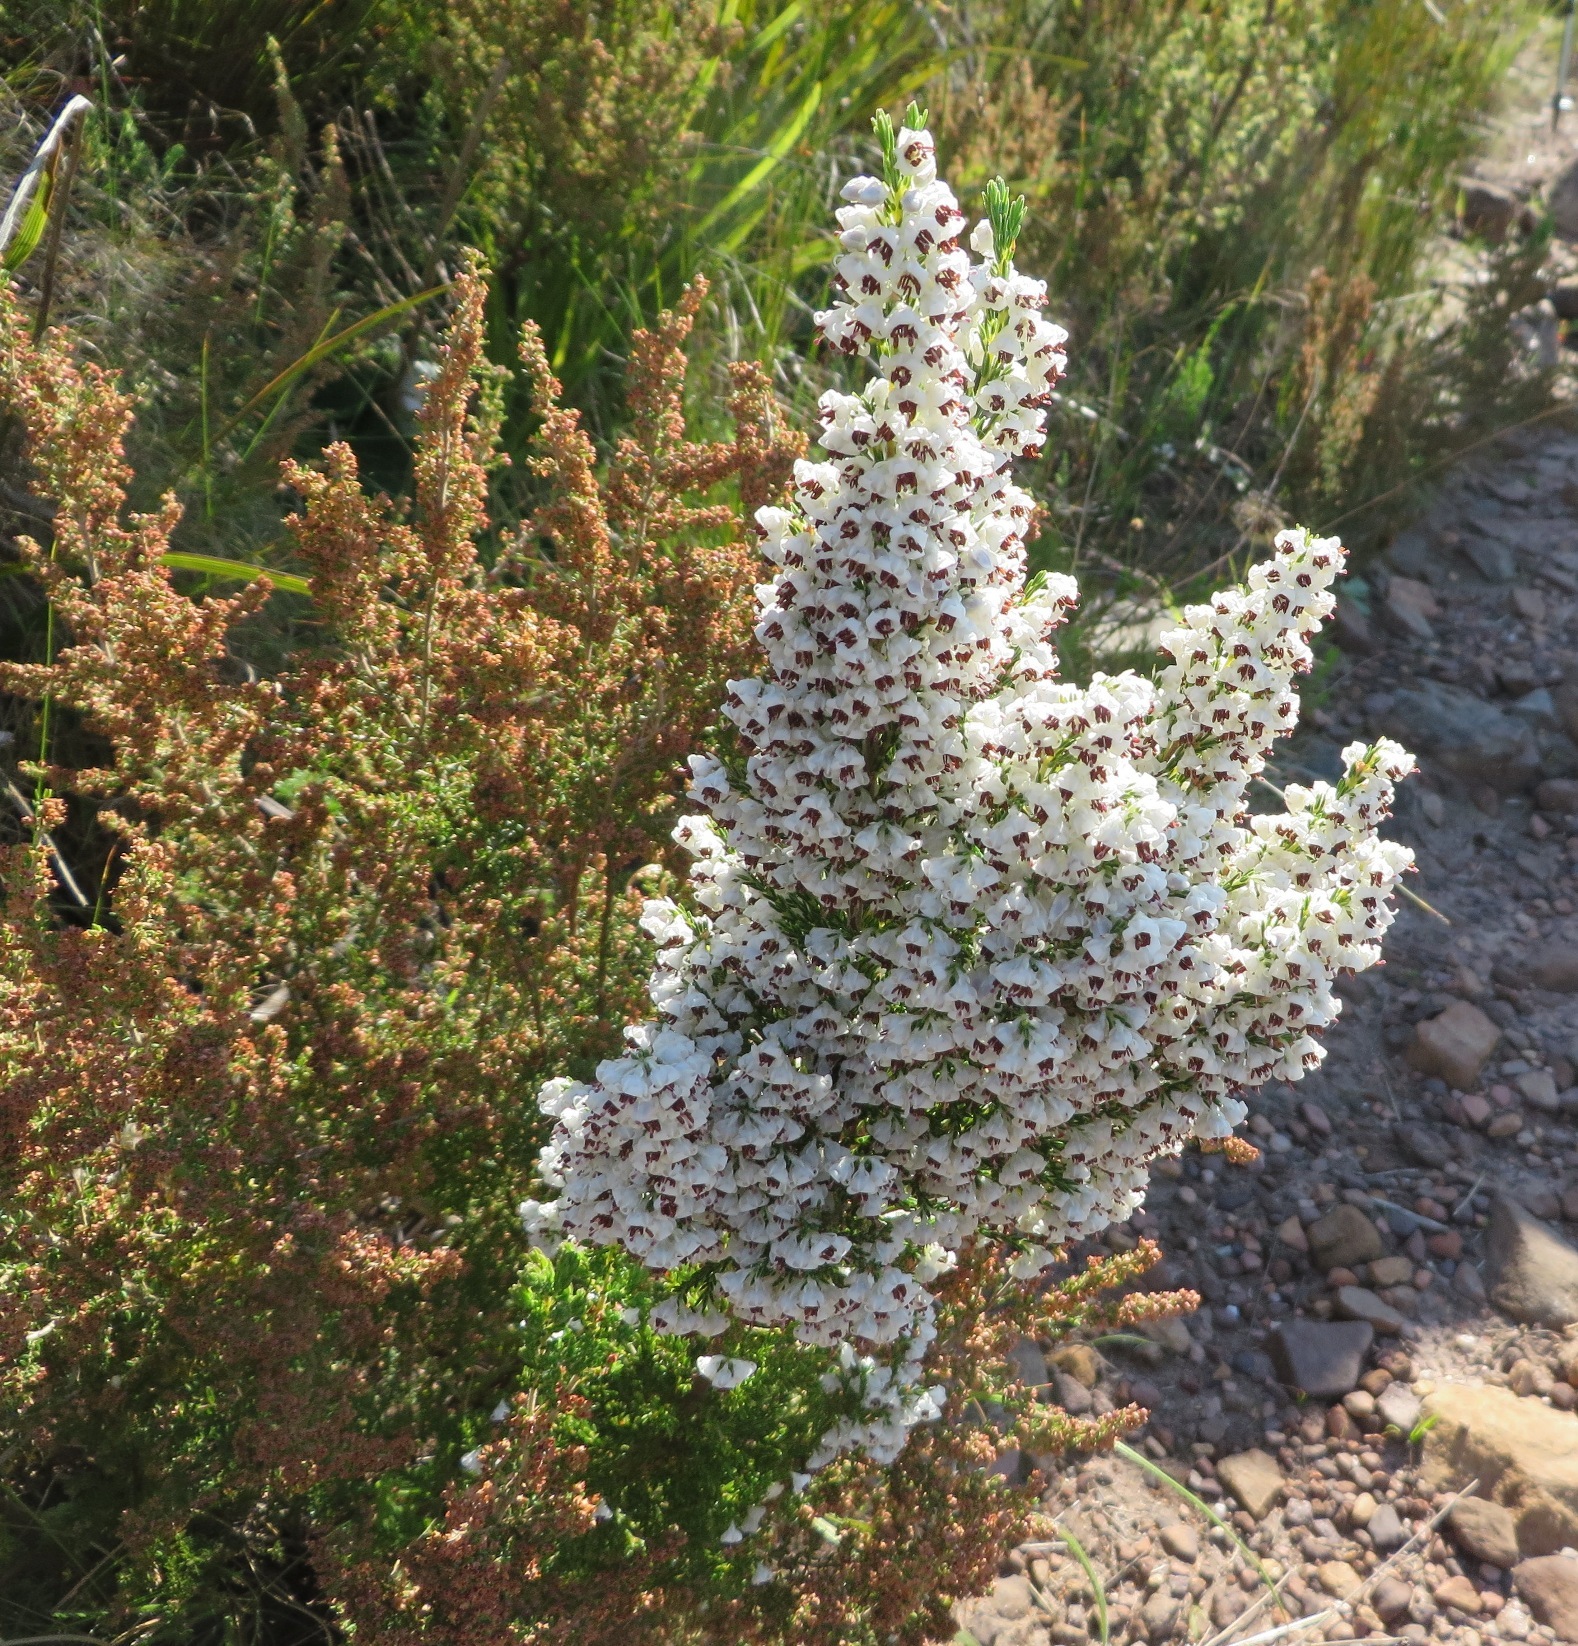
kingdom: Plantae
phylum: Tracheophyta
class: Magnoliopsida
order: Ericales
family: Ericaceae
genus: Erica
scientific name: Erica calycina
